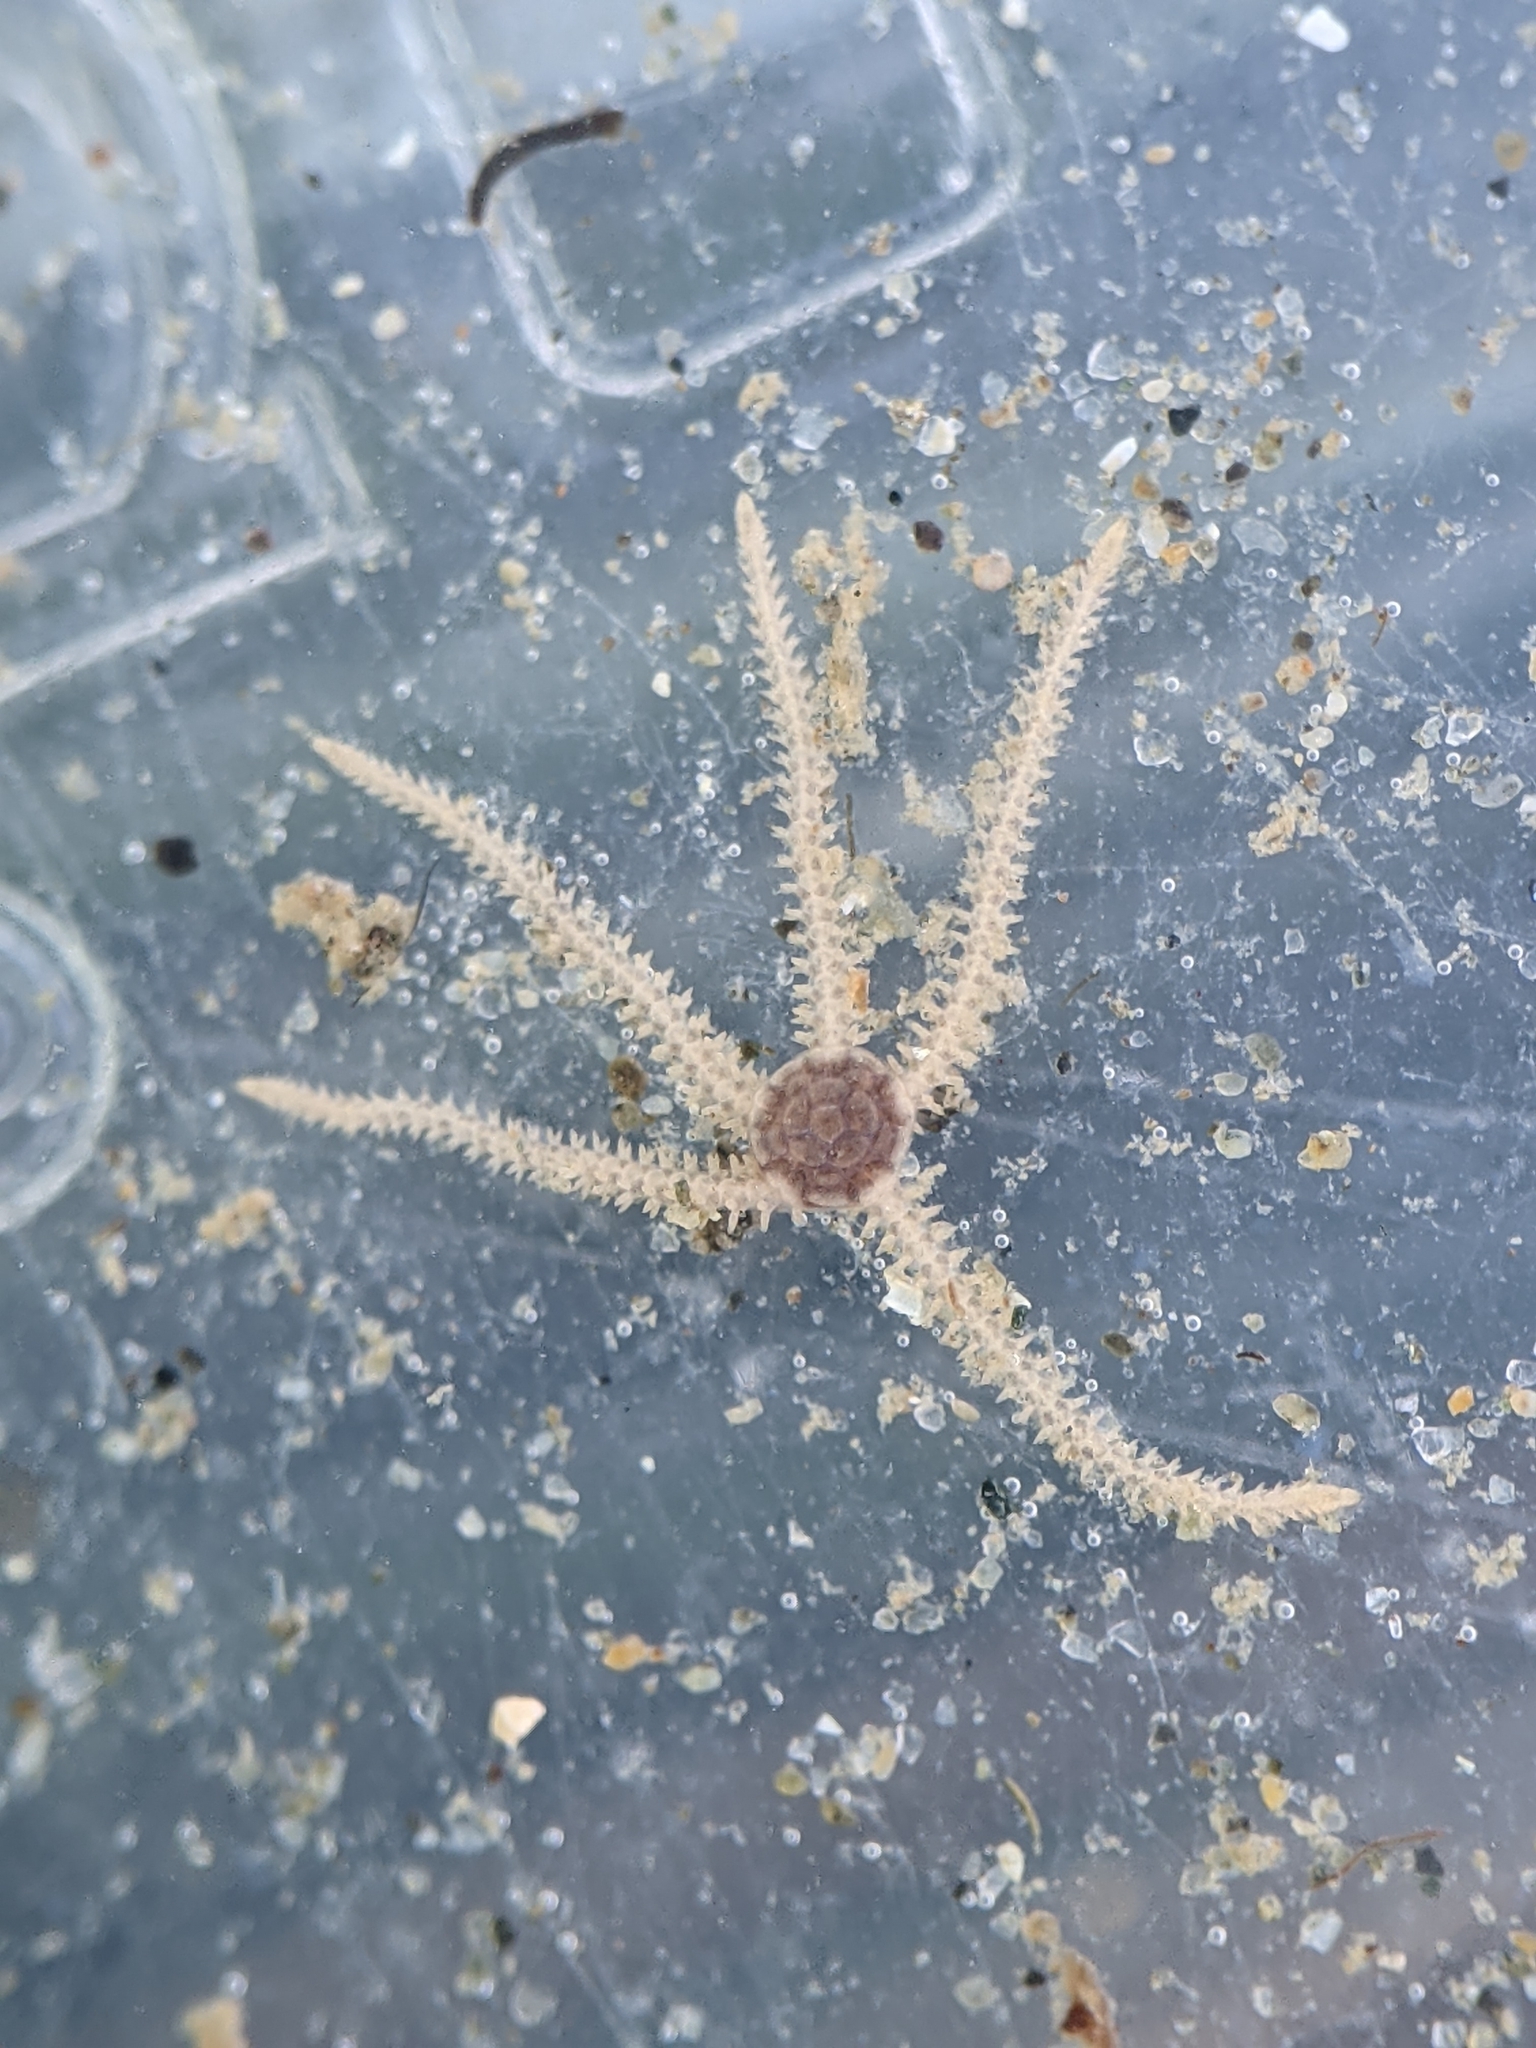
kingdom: Animalia
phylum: Echinodermata
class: Ophiuroidea
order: Amphilepidida
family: Amphiuridae
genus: Amphipholis
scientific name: Amphipholis squamata
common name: Brooding snake star
